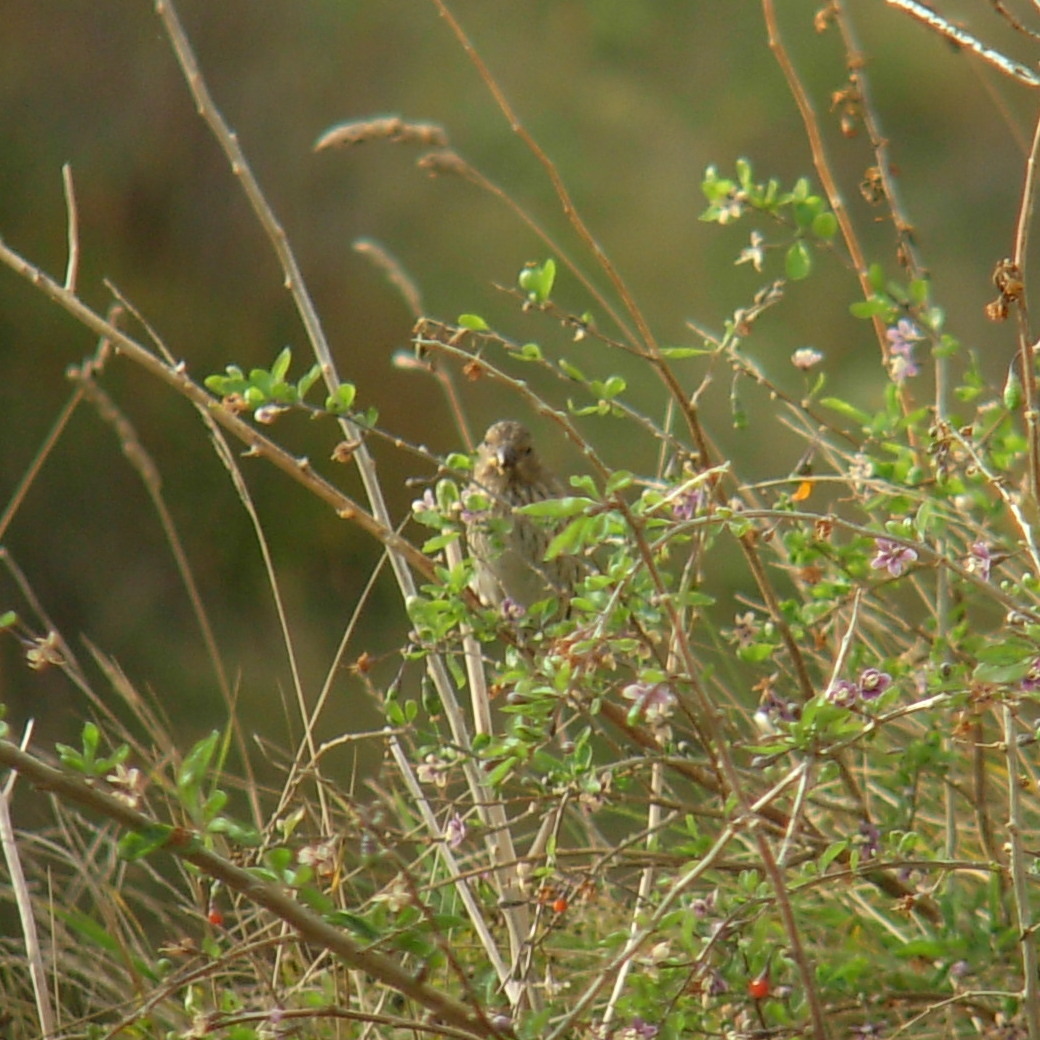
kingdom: Animalia
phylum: Chordata
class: Aves
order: Passeriformes
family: Fringillidae
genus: Carpodacus
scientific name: Carpodacus erythrinus
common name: Common rosefinch
